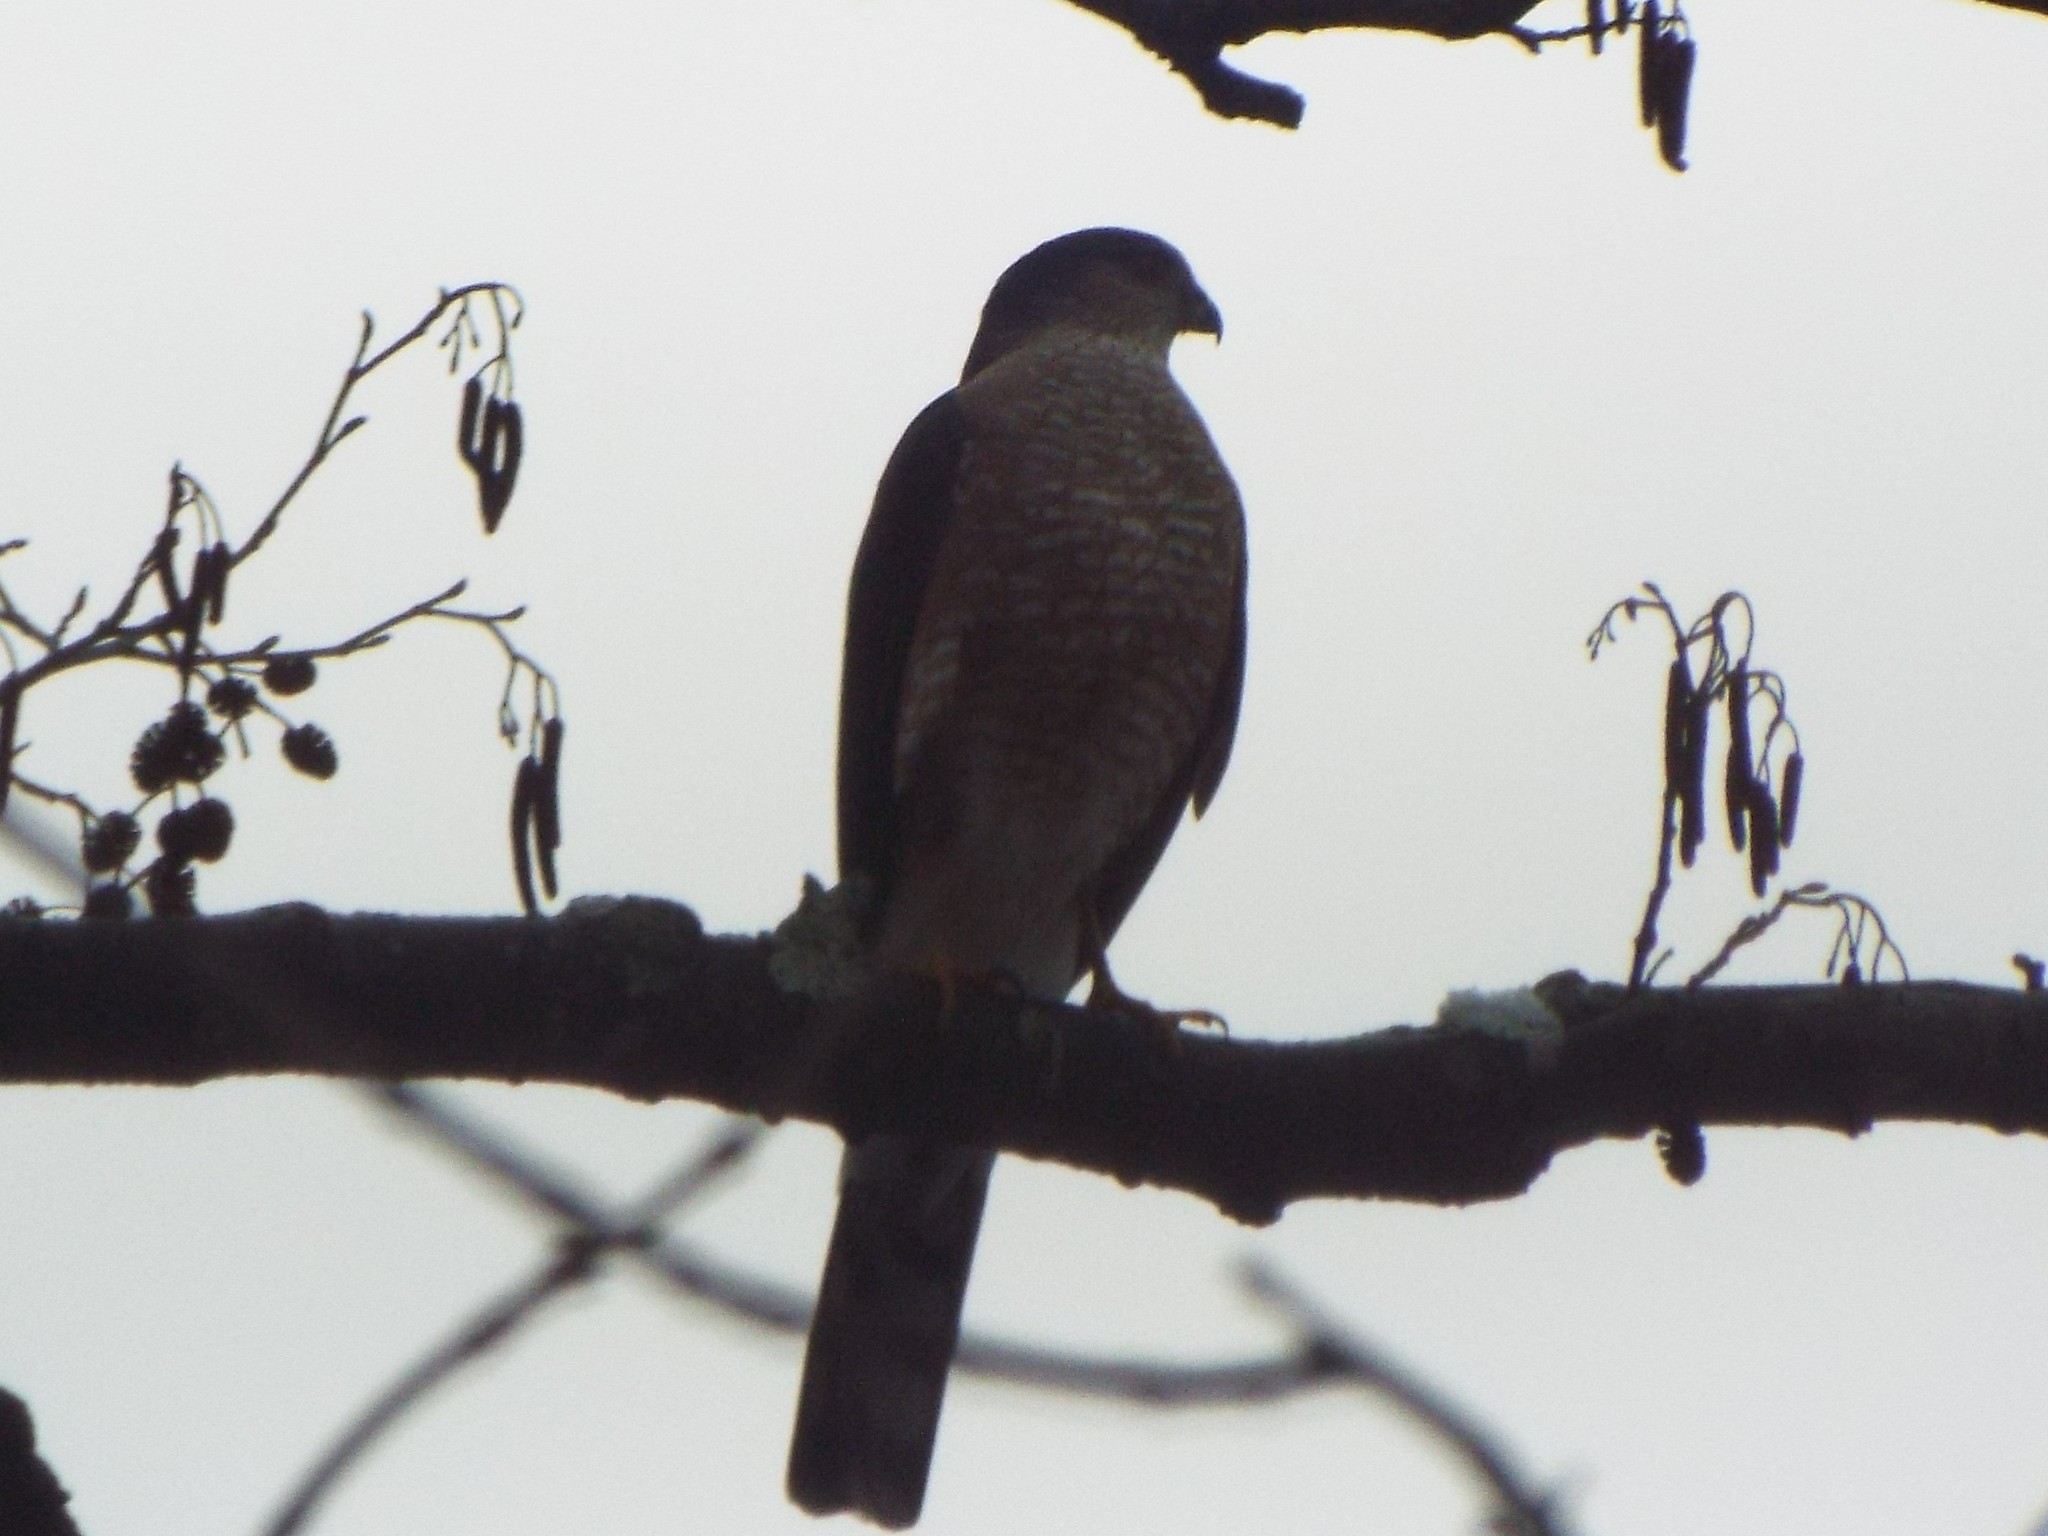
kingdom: Animalia
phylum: Chordata
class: Aves
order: Accipitriformes
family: Accipitridae
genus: Accipiter
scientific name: Accipiter striatus
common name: Sharp-shinned hawk
